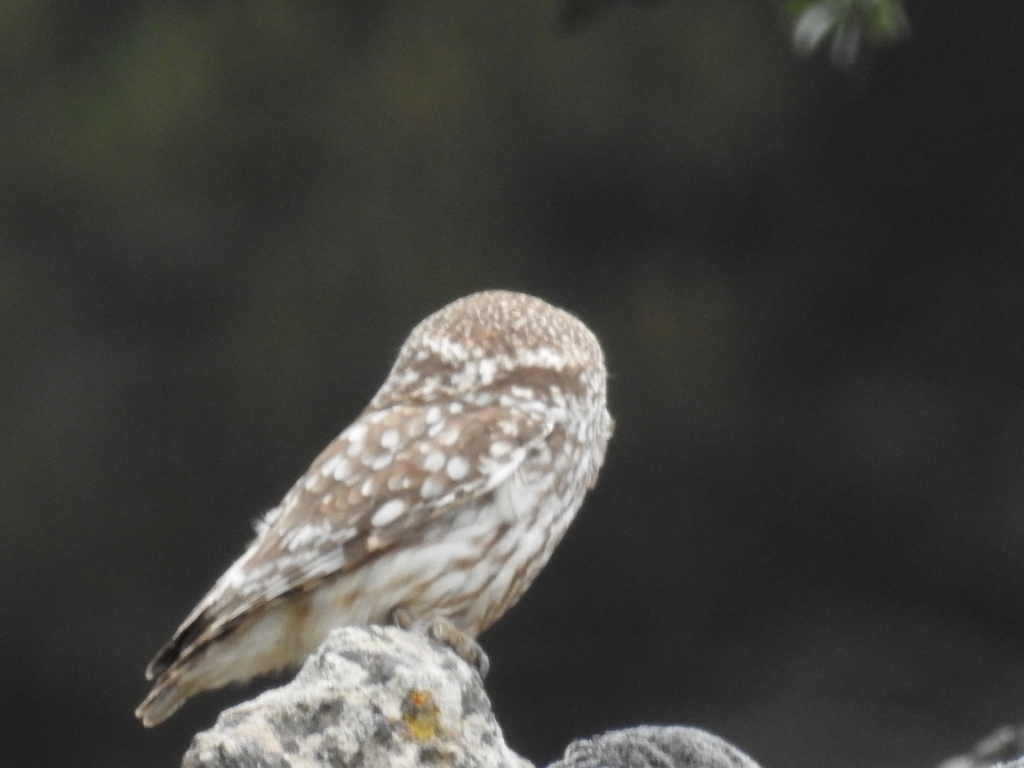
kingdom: Animalia
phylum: Chordata
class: Aves
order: Strigiformes
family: Strigidae
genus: Athene
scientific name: Athene noctua
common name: Little owl
